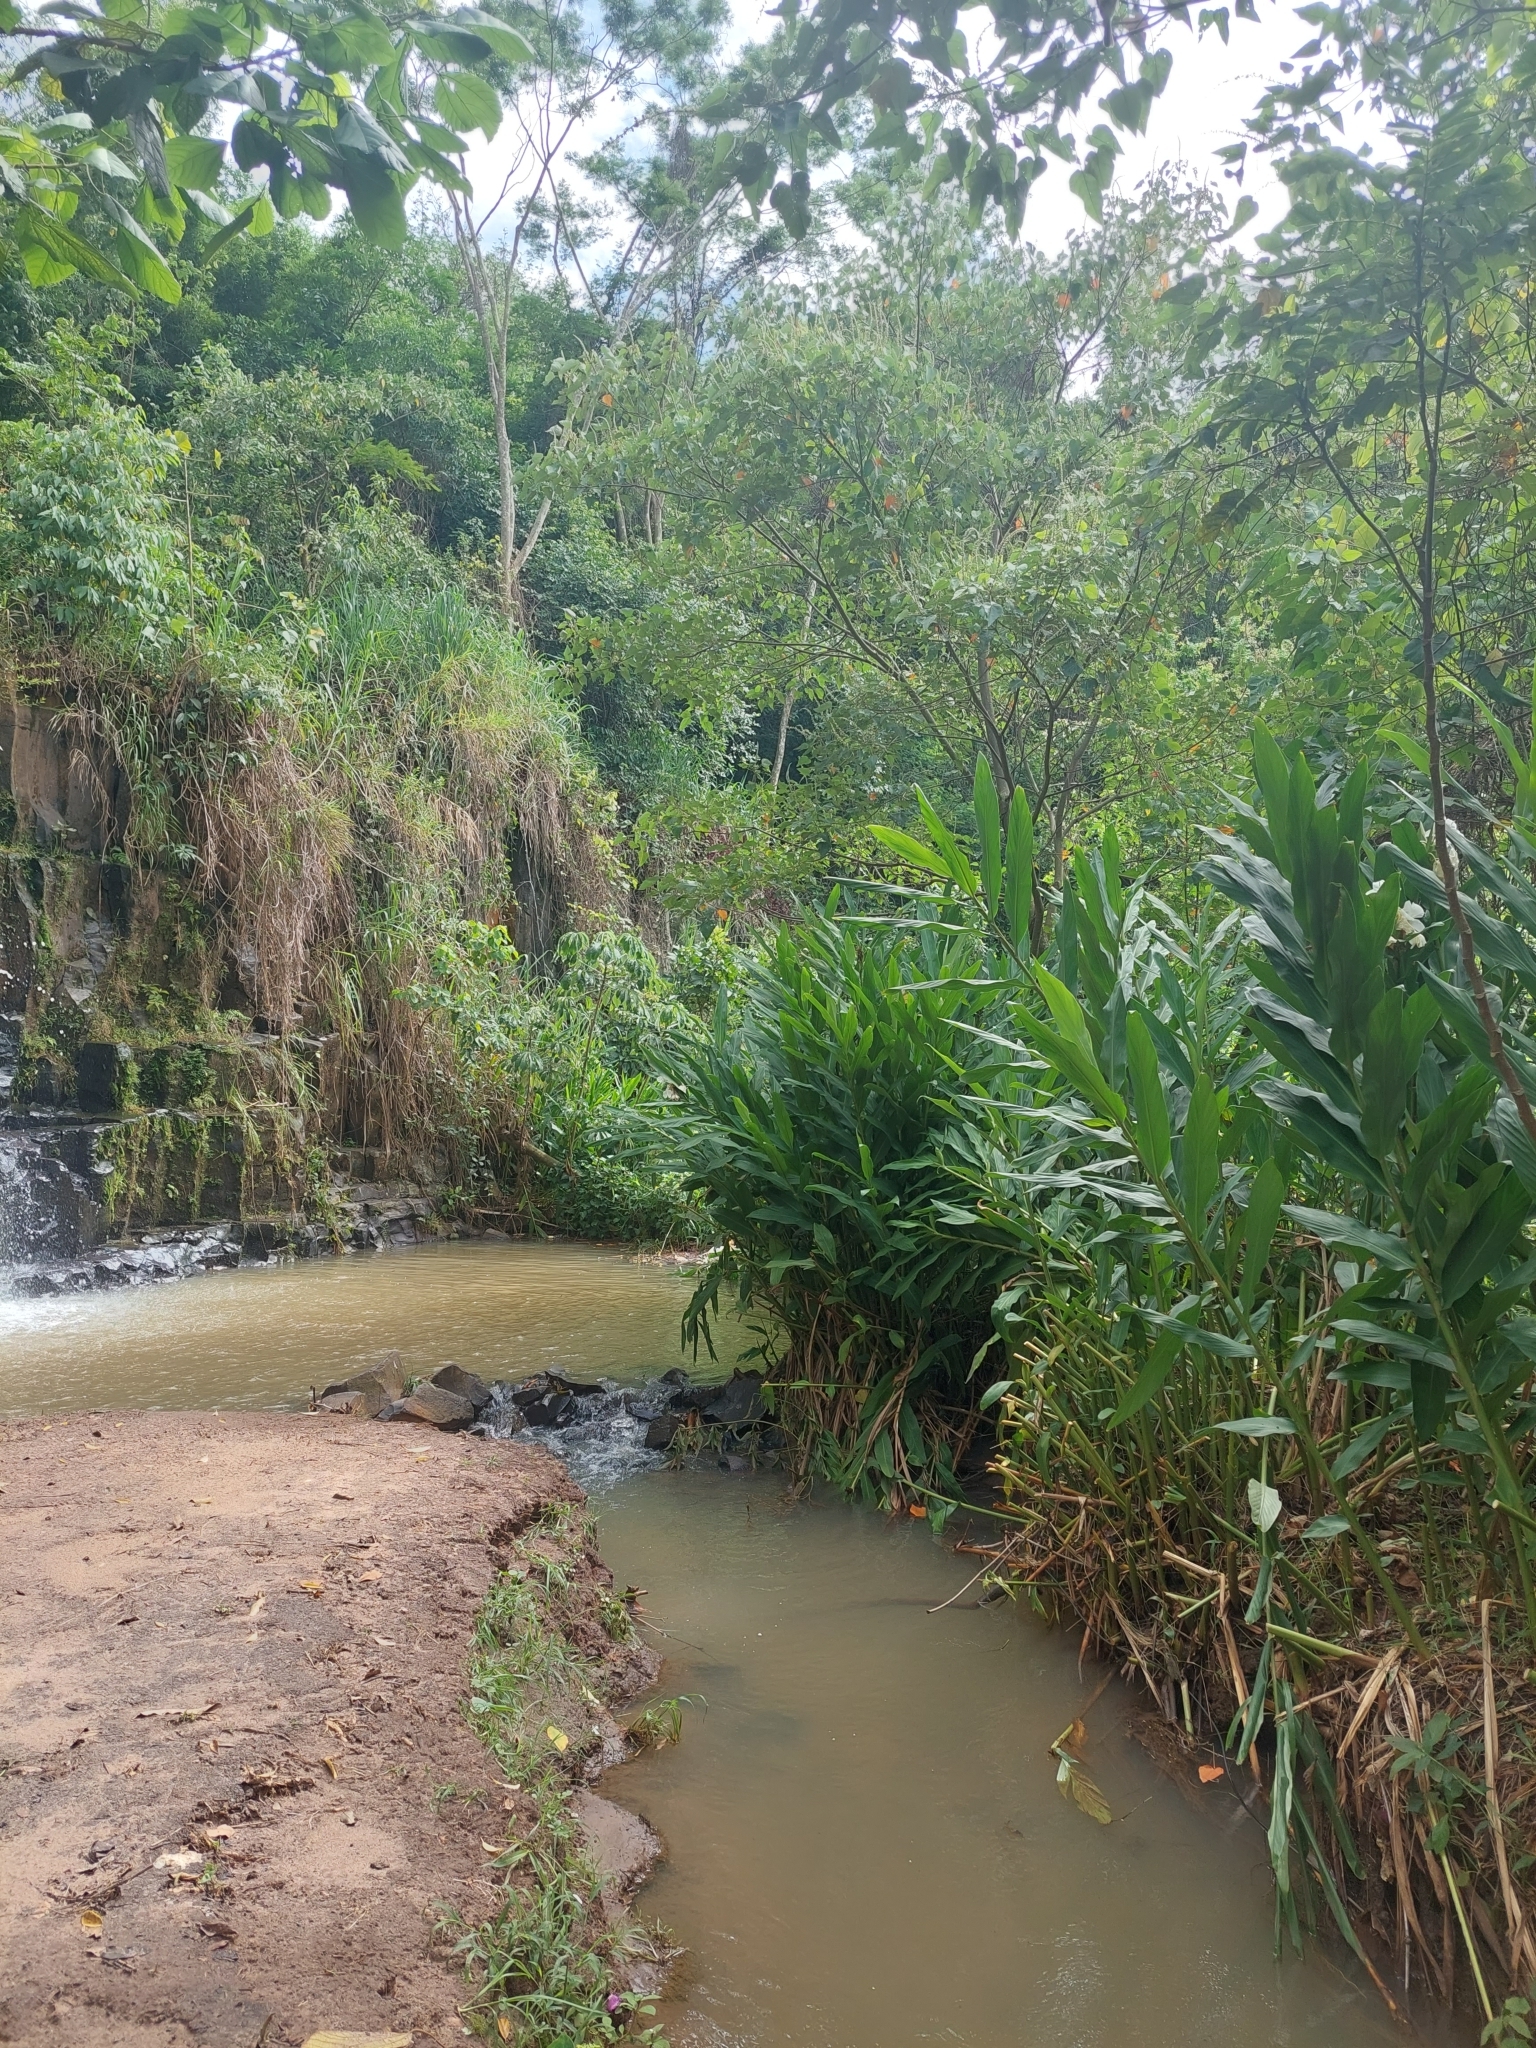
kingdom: Plantae
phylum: Tracheophyta
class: Liliopsida
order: Zingiberales
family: Zingiberaceae
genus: Hedychium
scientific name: Hedychium coronarium
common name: White garland-lily
